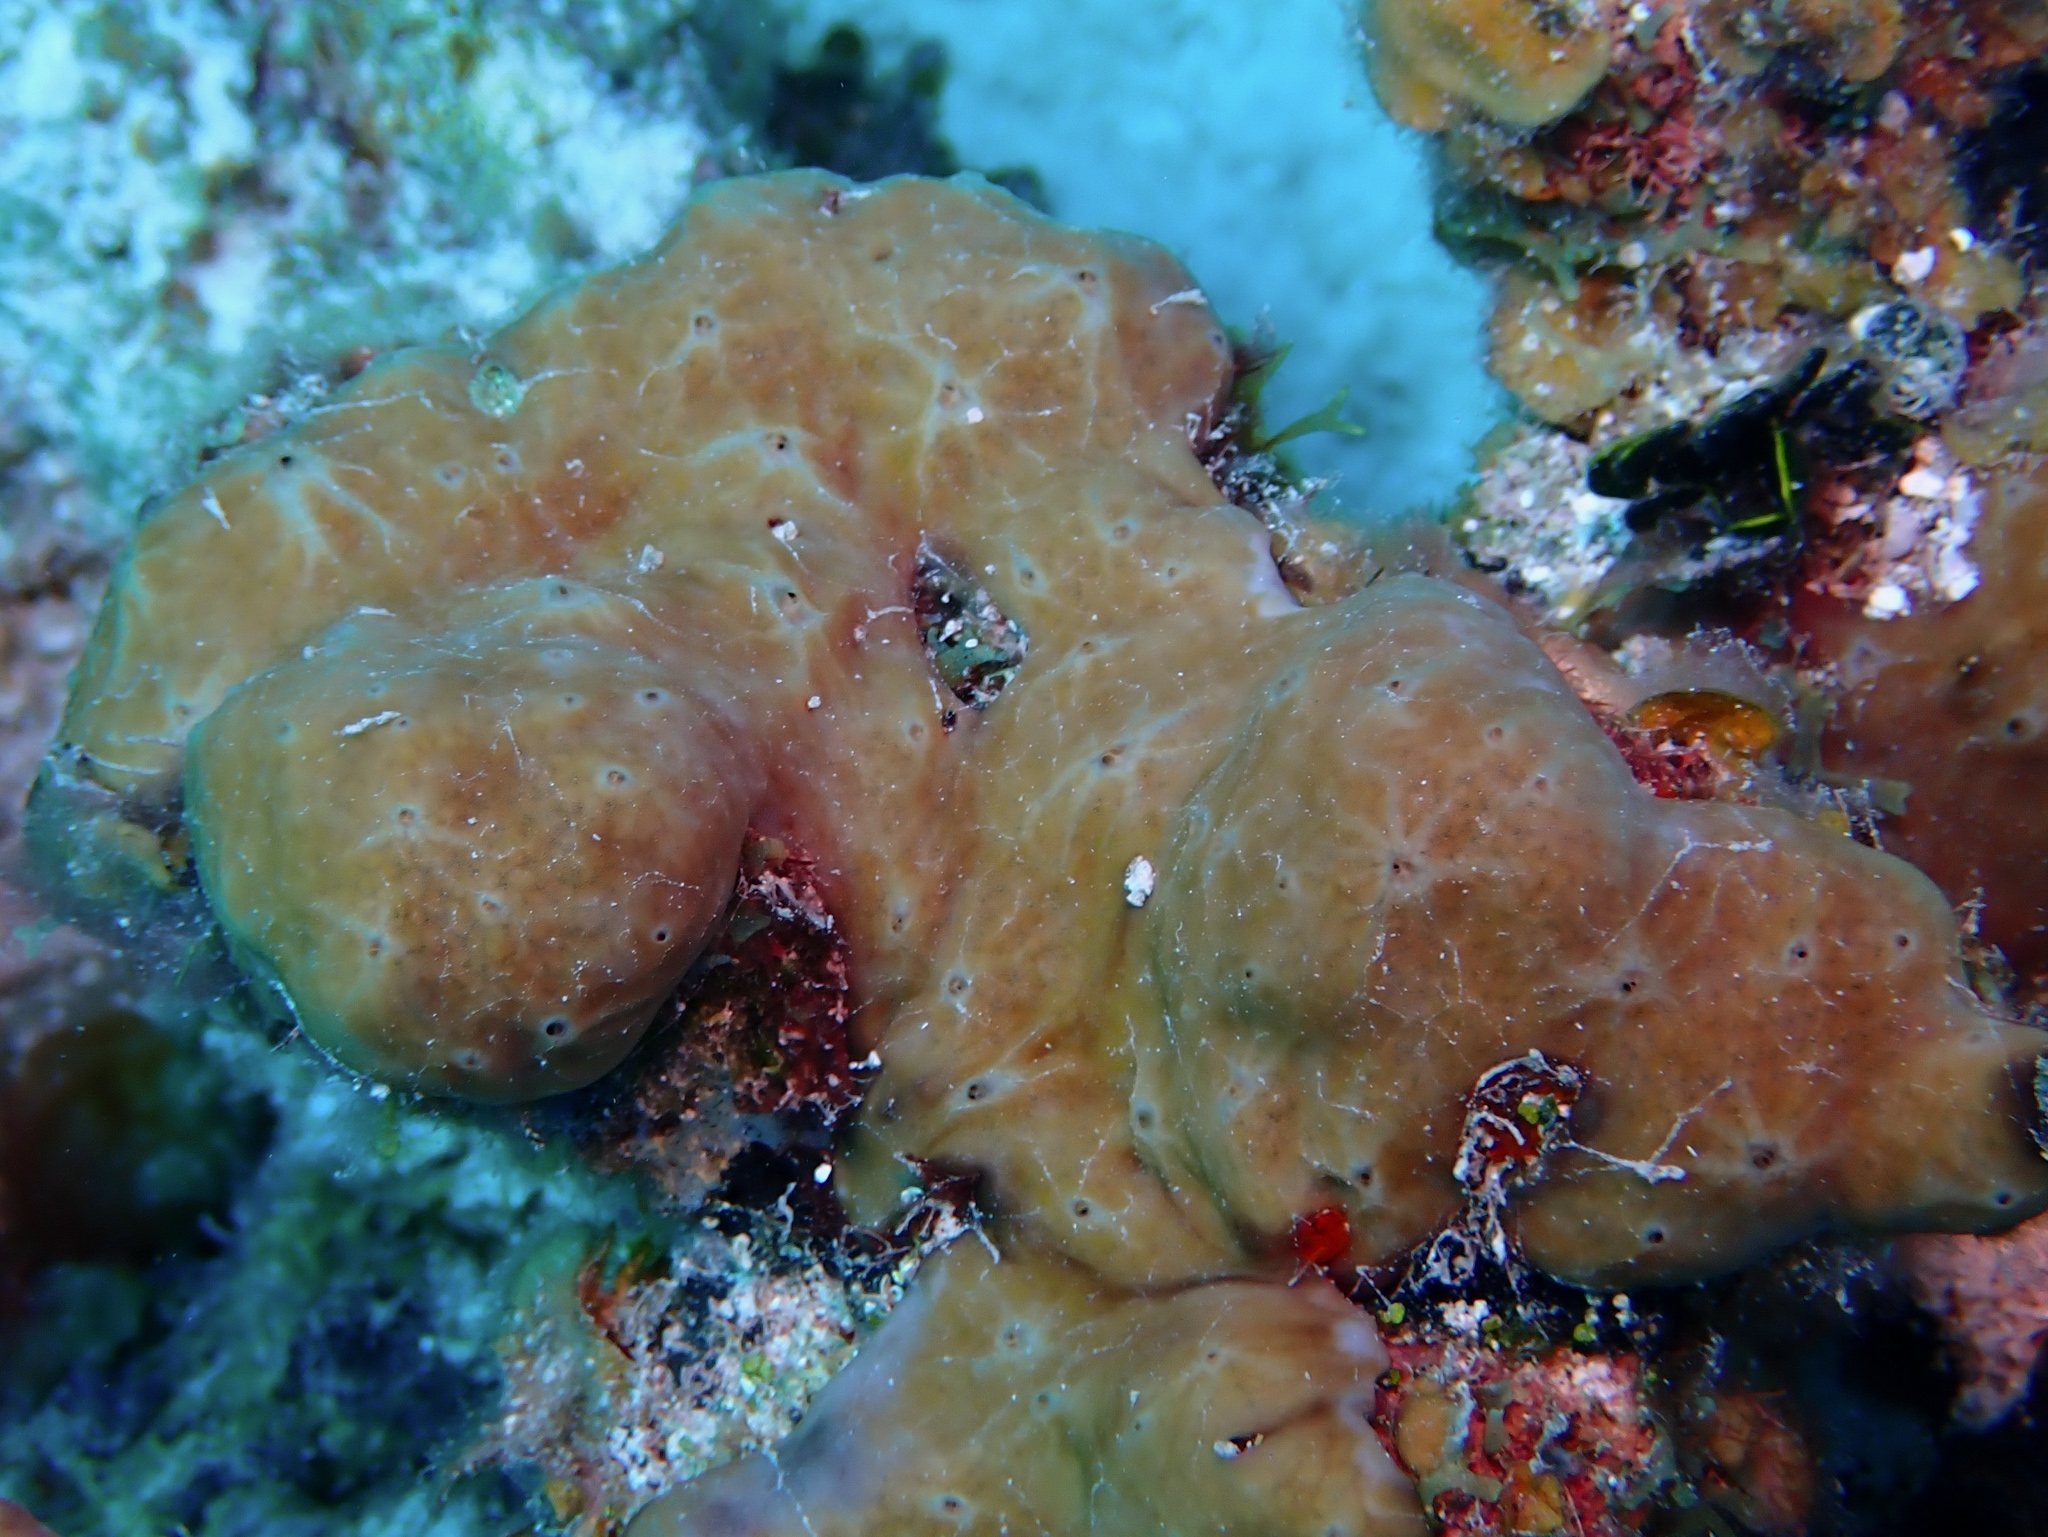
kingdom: Animalia
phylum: Porifera
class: Demospongiae
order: Chondrillida
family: Chondrillidae
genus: Chondrilla
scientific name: Chondrilla caribensis
